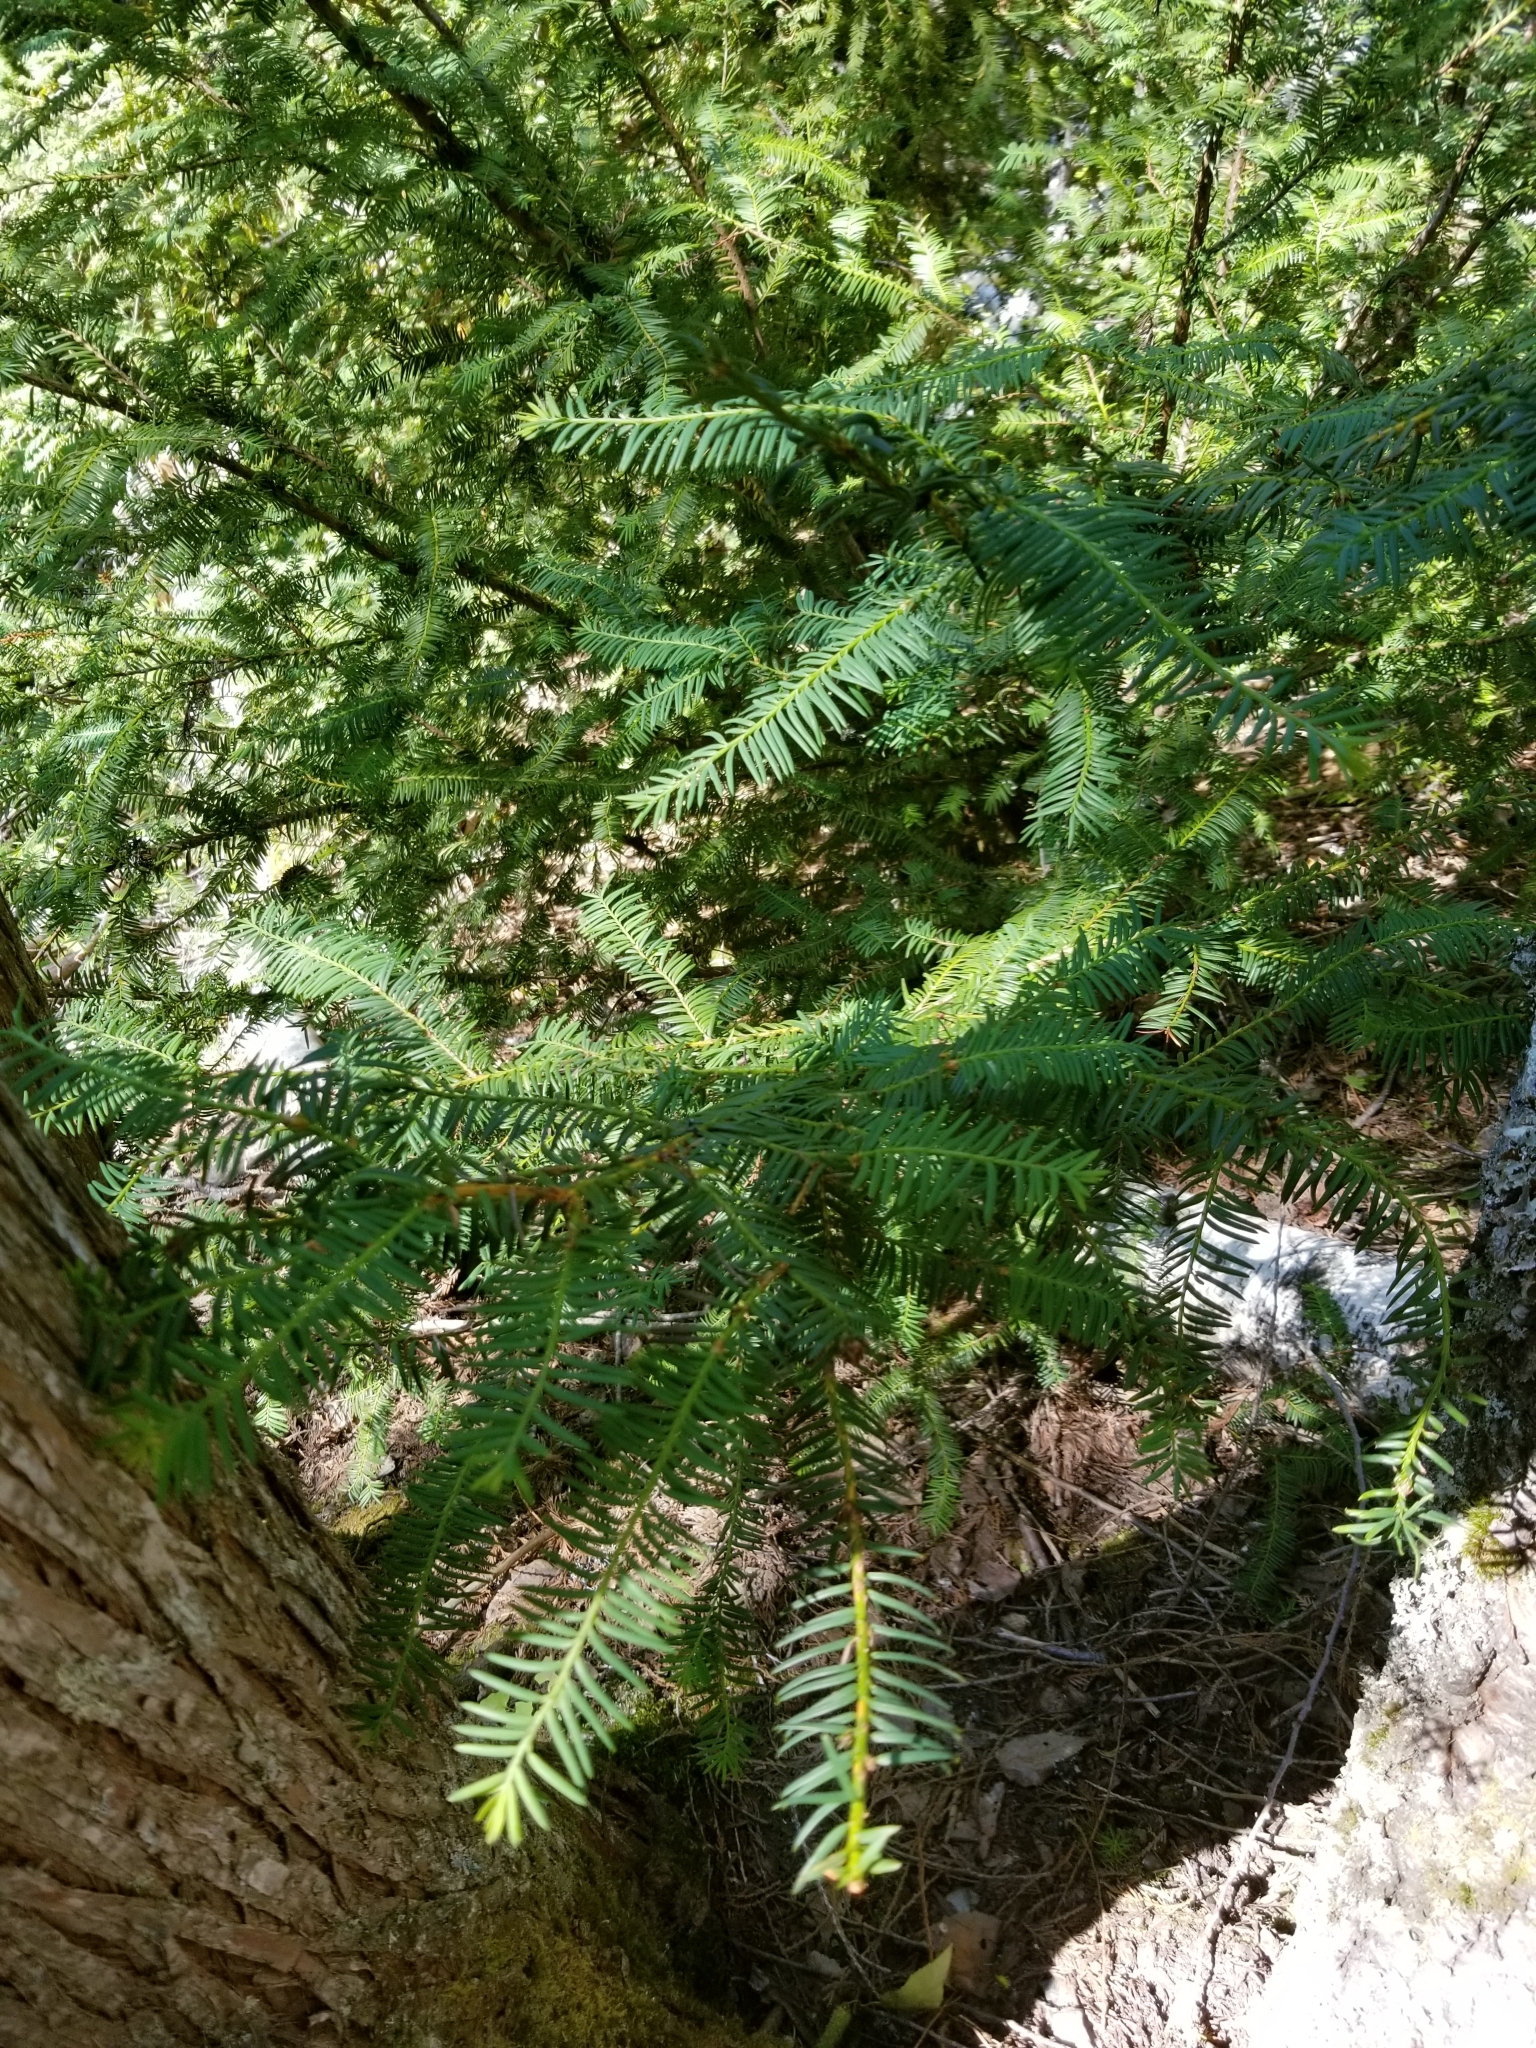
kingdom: Plantae
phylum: Tracheophyta
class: Pinopsida
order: Pinales
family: Taxaceae
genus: Taxus
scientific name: Taxus brevifolia
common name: Pacific yew
